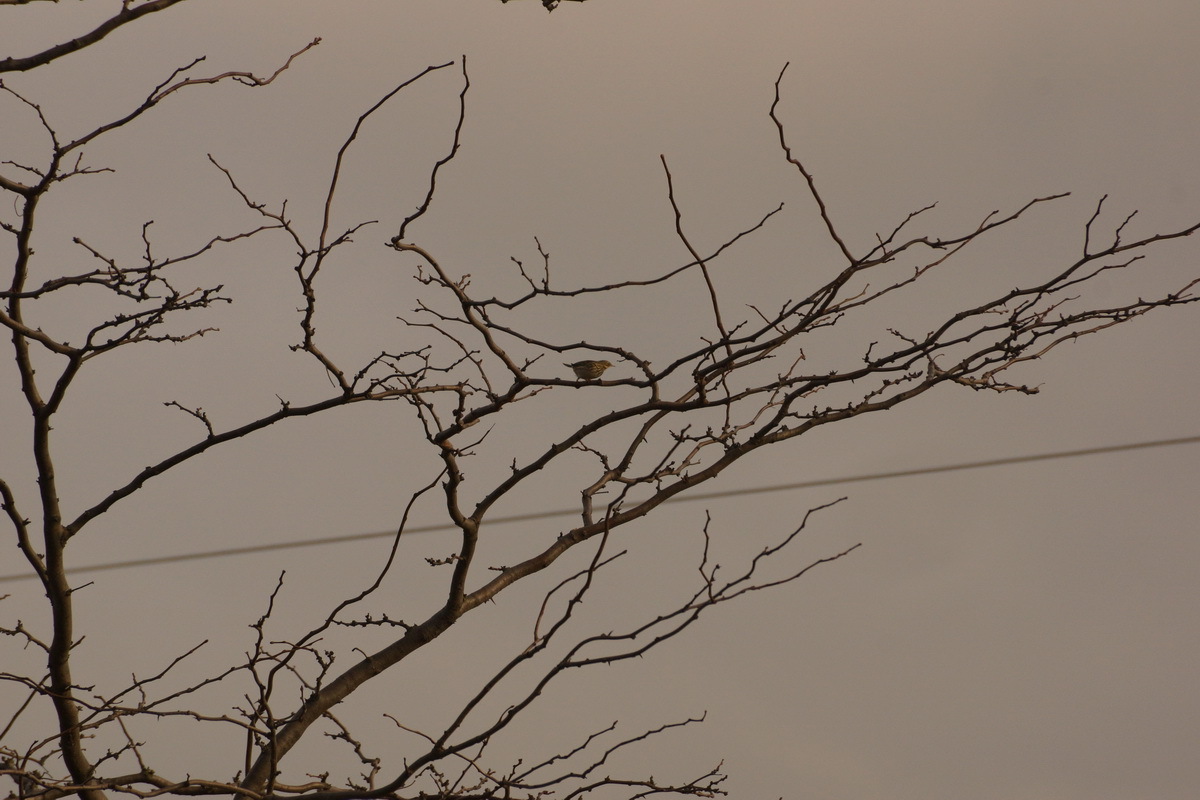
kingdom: Animalia
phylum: Chordata
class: Aves
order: Passeriformes
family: Motacillidae
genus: Anthus
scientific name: Anthus pratensis
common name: Meadow pipit
